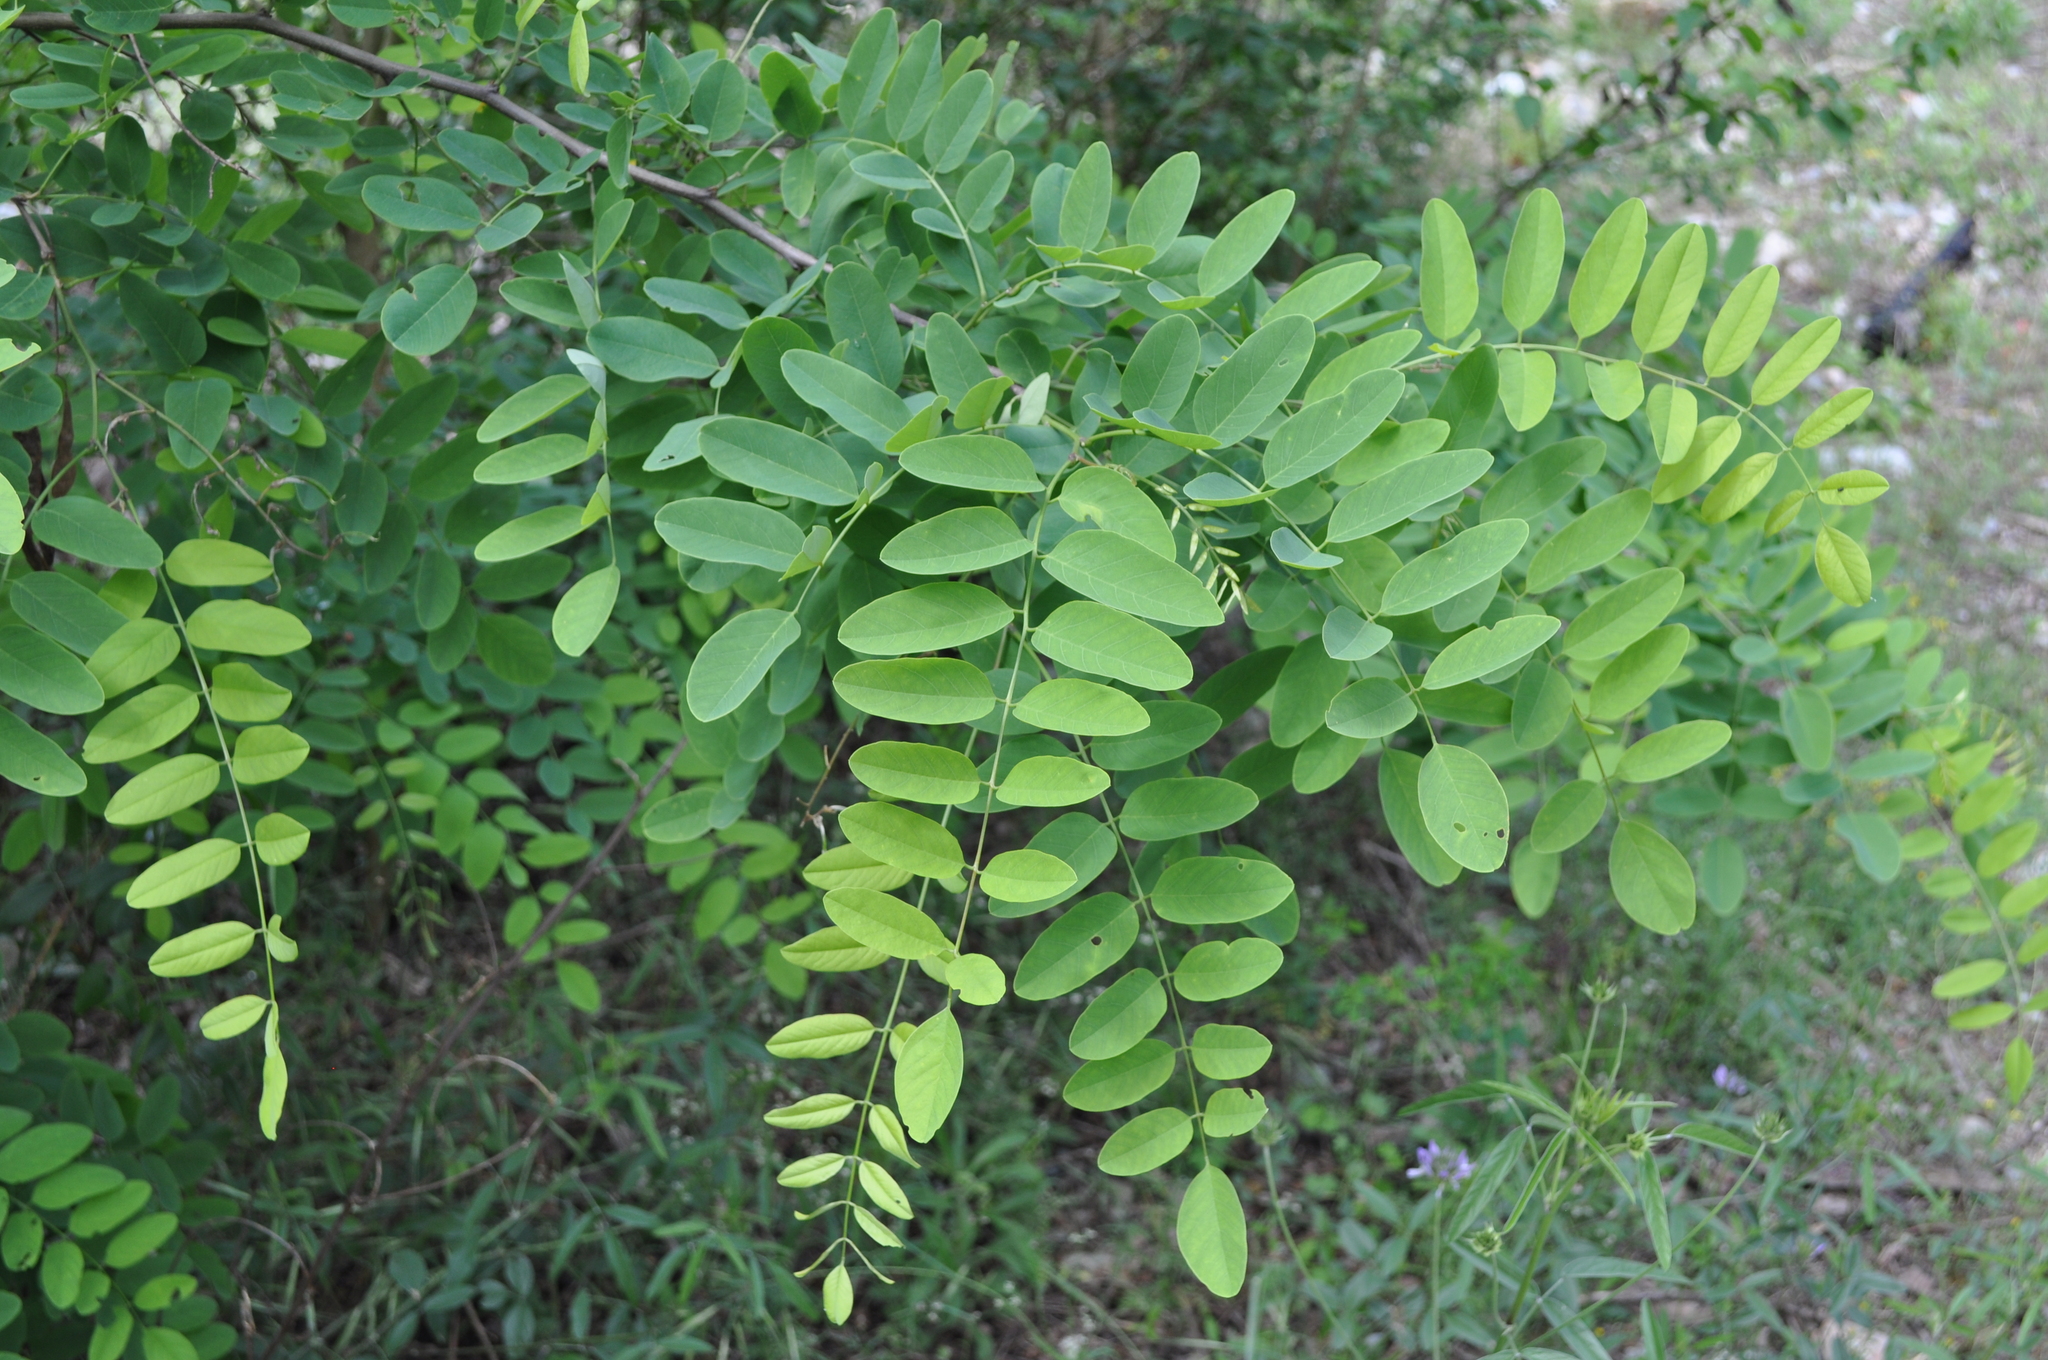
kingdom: Plantae
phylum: Tracheophyta
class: Magnoliopsida
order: Fabales
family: Fabaceae
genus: Robinia
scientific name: Robinia pseudoacacia
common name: Black locust
